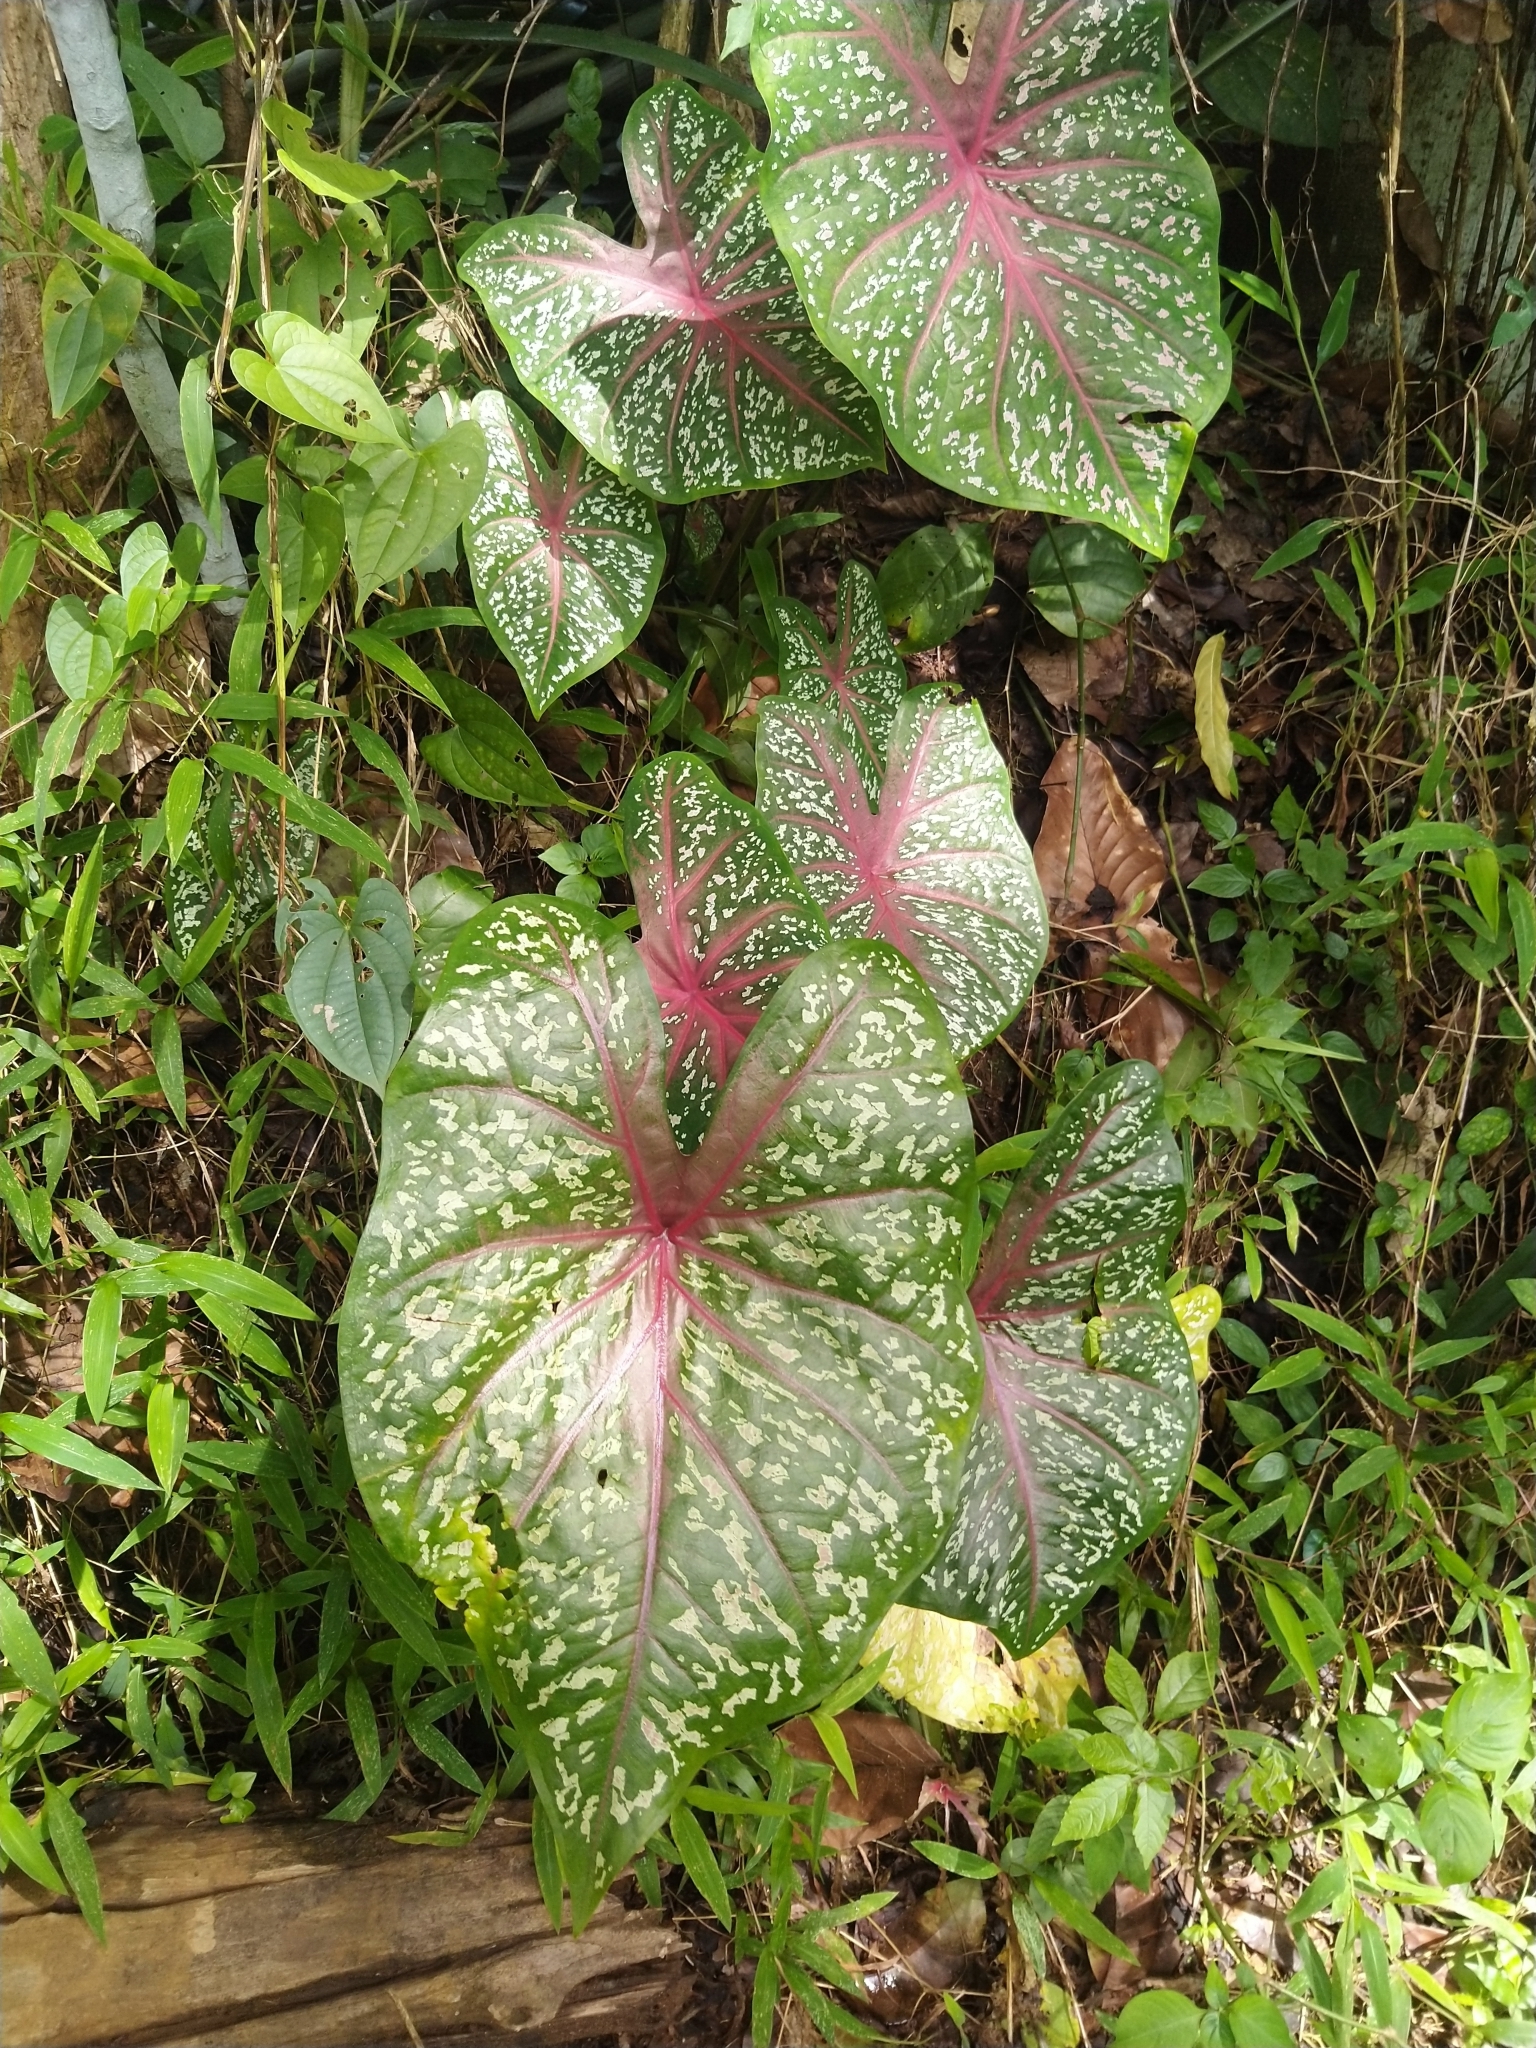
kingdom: Plantae
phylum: Tracheophyta
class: Liliopsida
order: Alismatales
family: Araceae
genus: Caladium
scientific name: Caladium bicolor
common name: Artist's pallet
